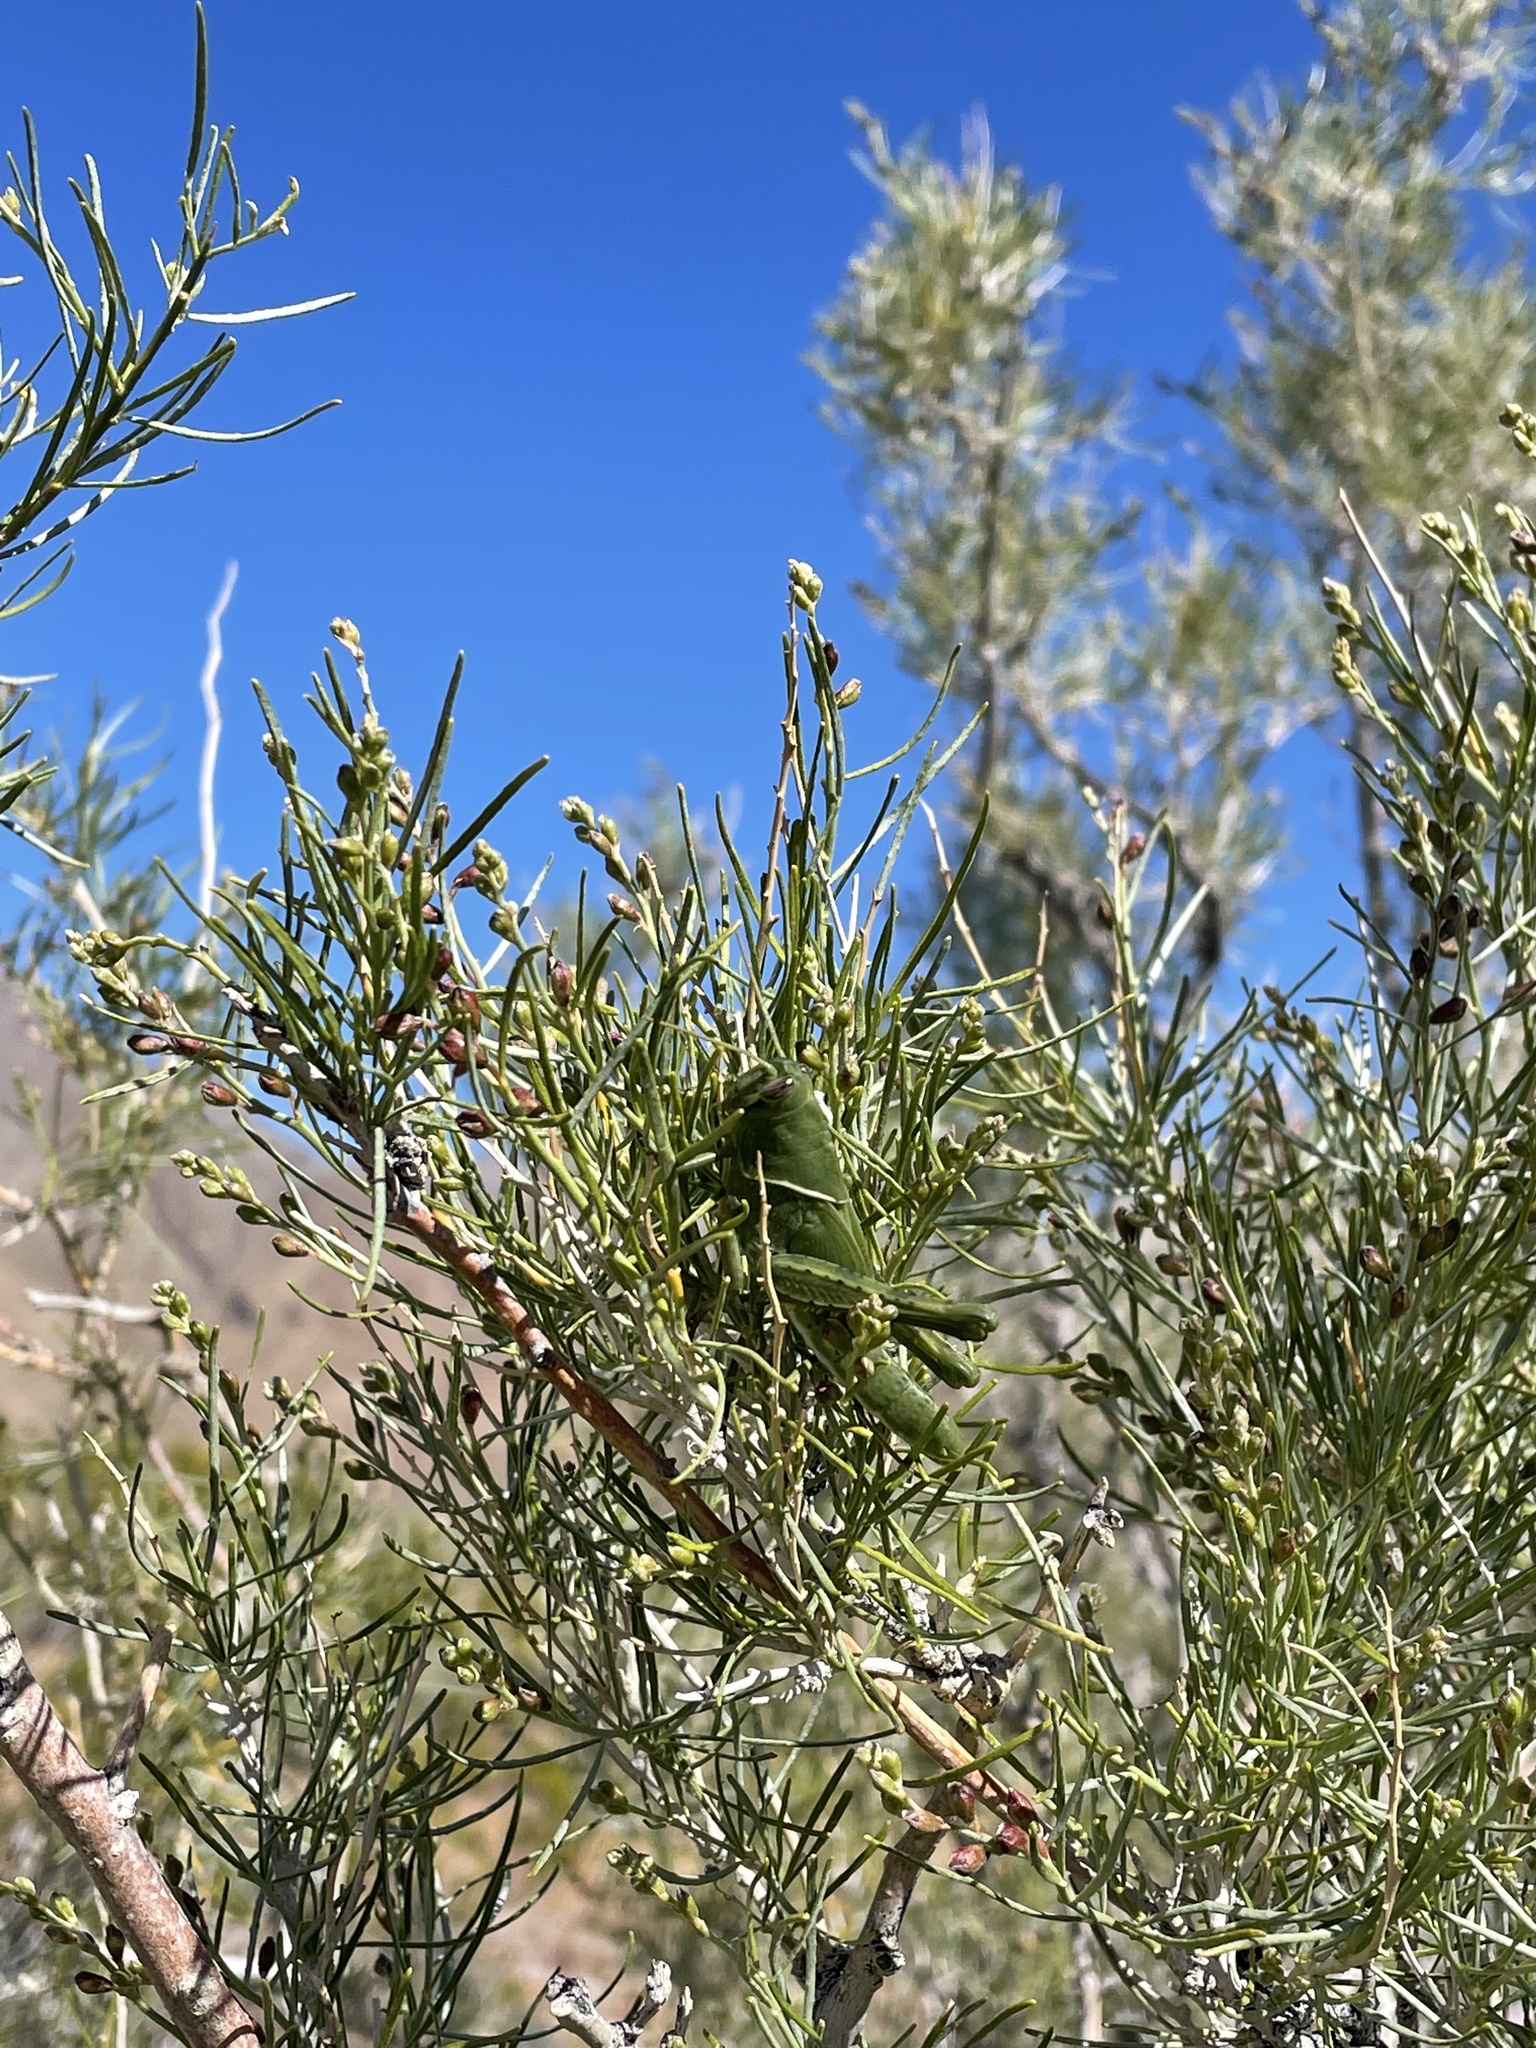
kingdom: Animalia
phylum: Arthropoda
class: Insecta
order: Orthoptera
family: Acrididae
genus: Schistocerca
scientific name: Schistocerca nitens
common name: Vagrant grasshopper
